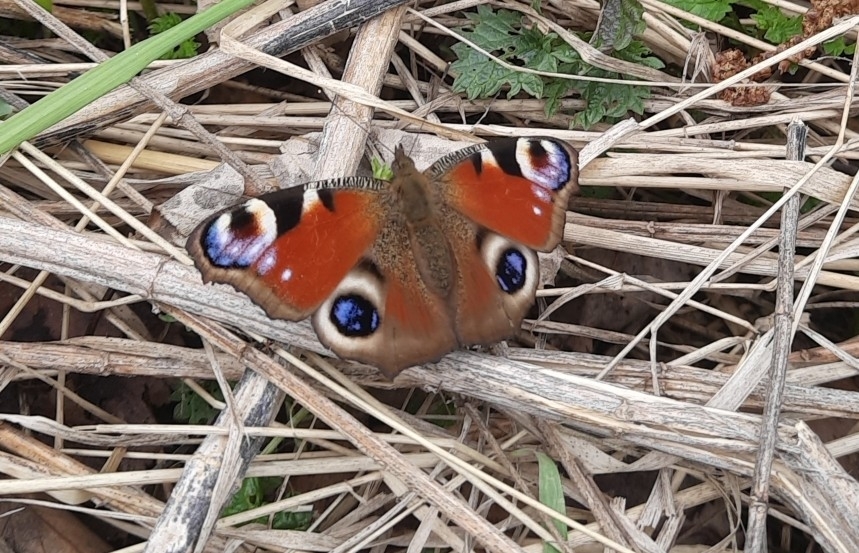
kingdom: Animalia
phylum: Arthropoda
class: Insecta
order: Lepidoptera
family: Nymphalidae
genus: Aglais
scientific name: Aglais io
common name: Peacock
